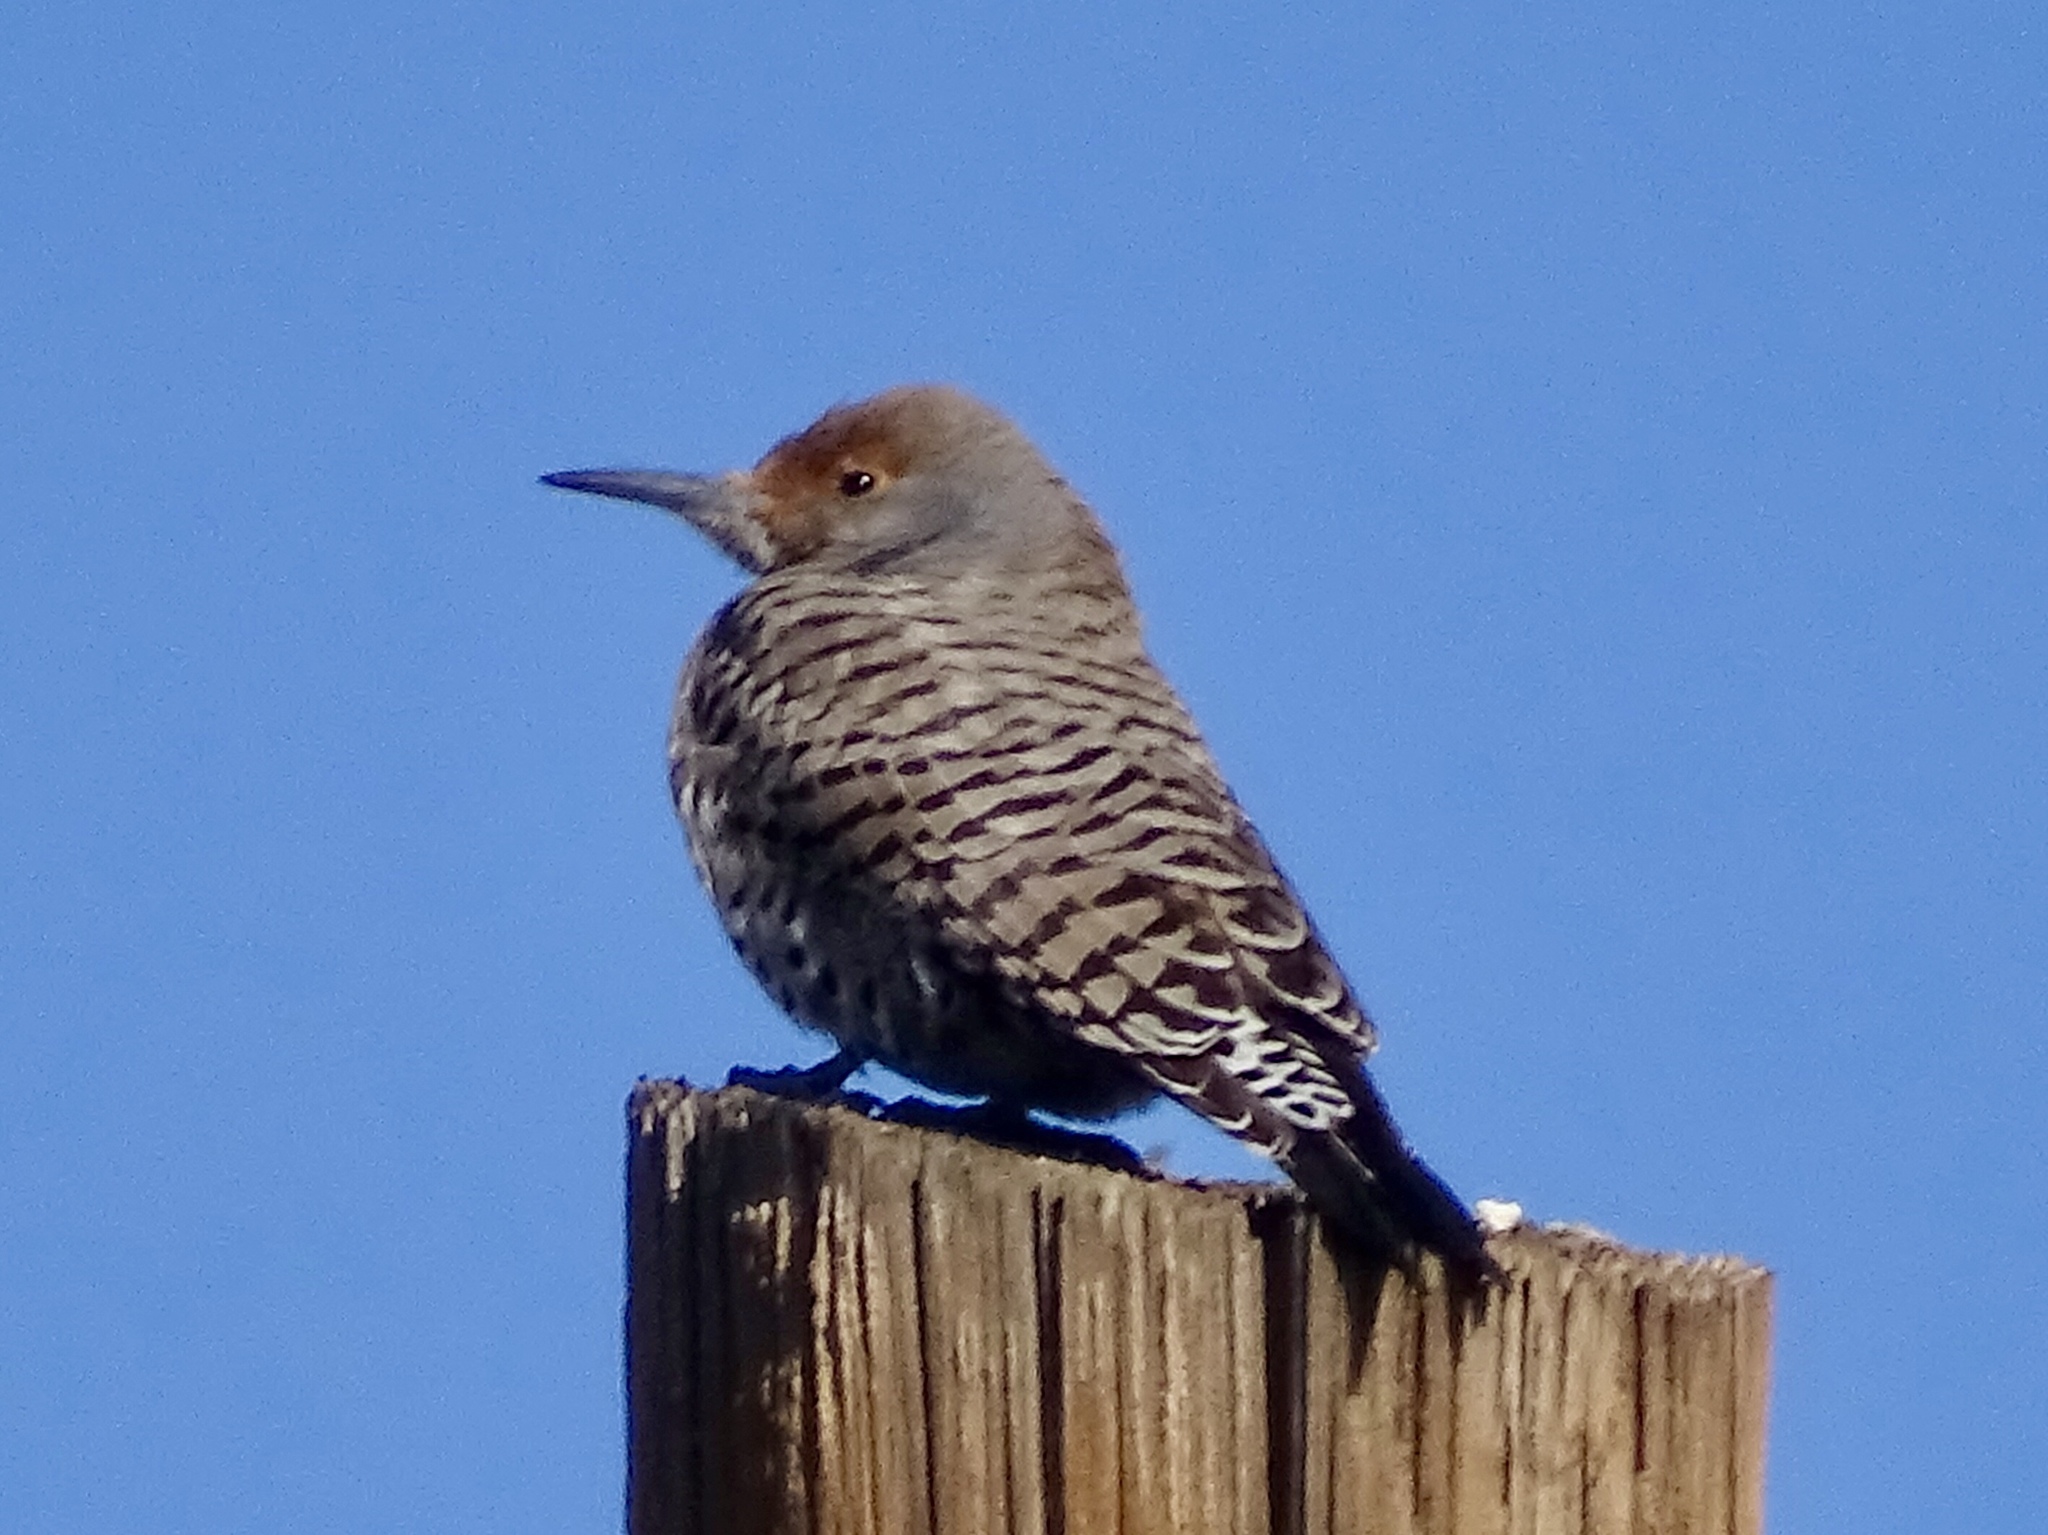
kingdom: Animalia
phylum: Chordata
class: Aves
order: Piciformes
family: Picidae
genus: Colaptes
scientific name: Colaptes auratus
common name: Northern flicker
